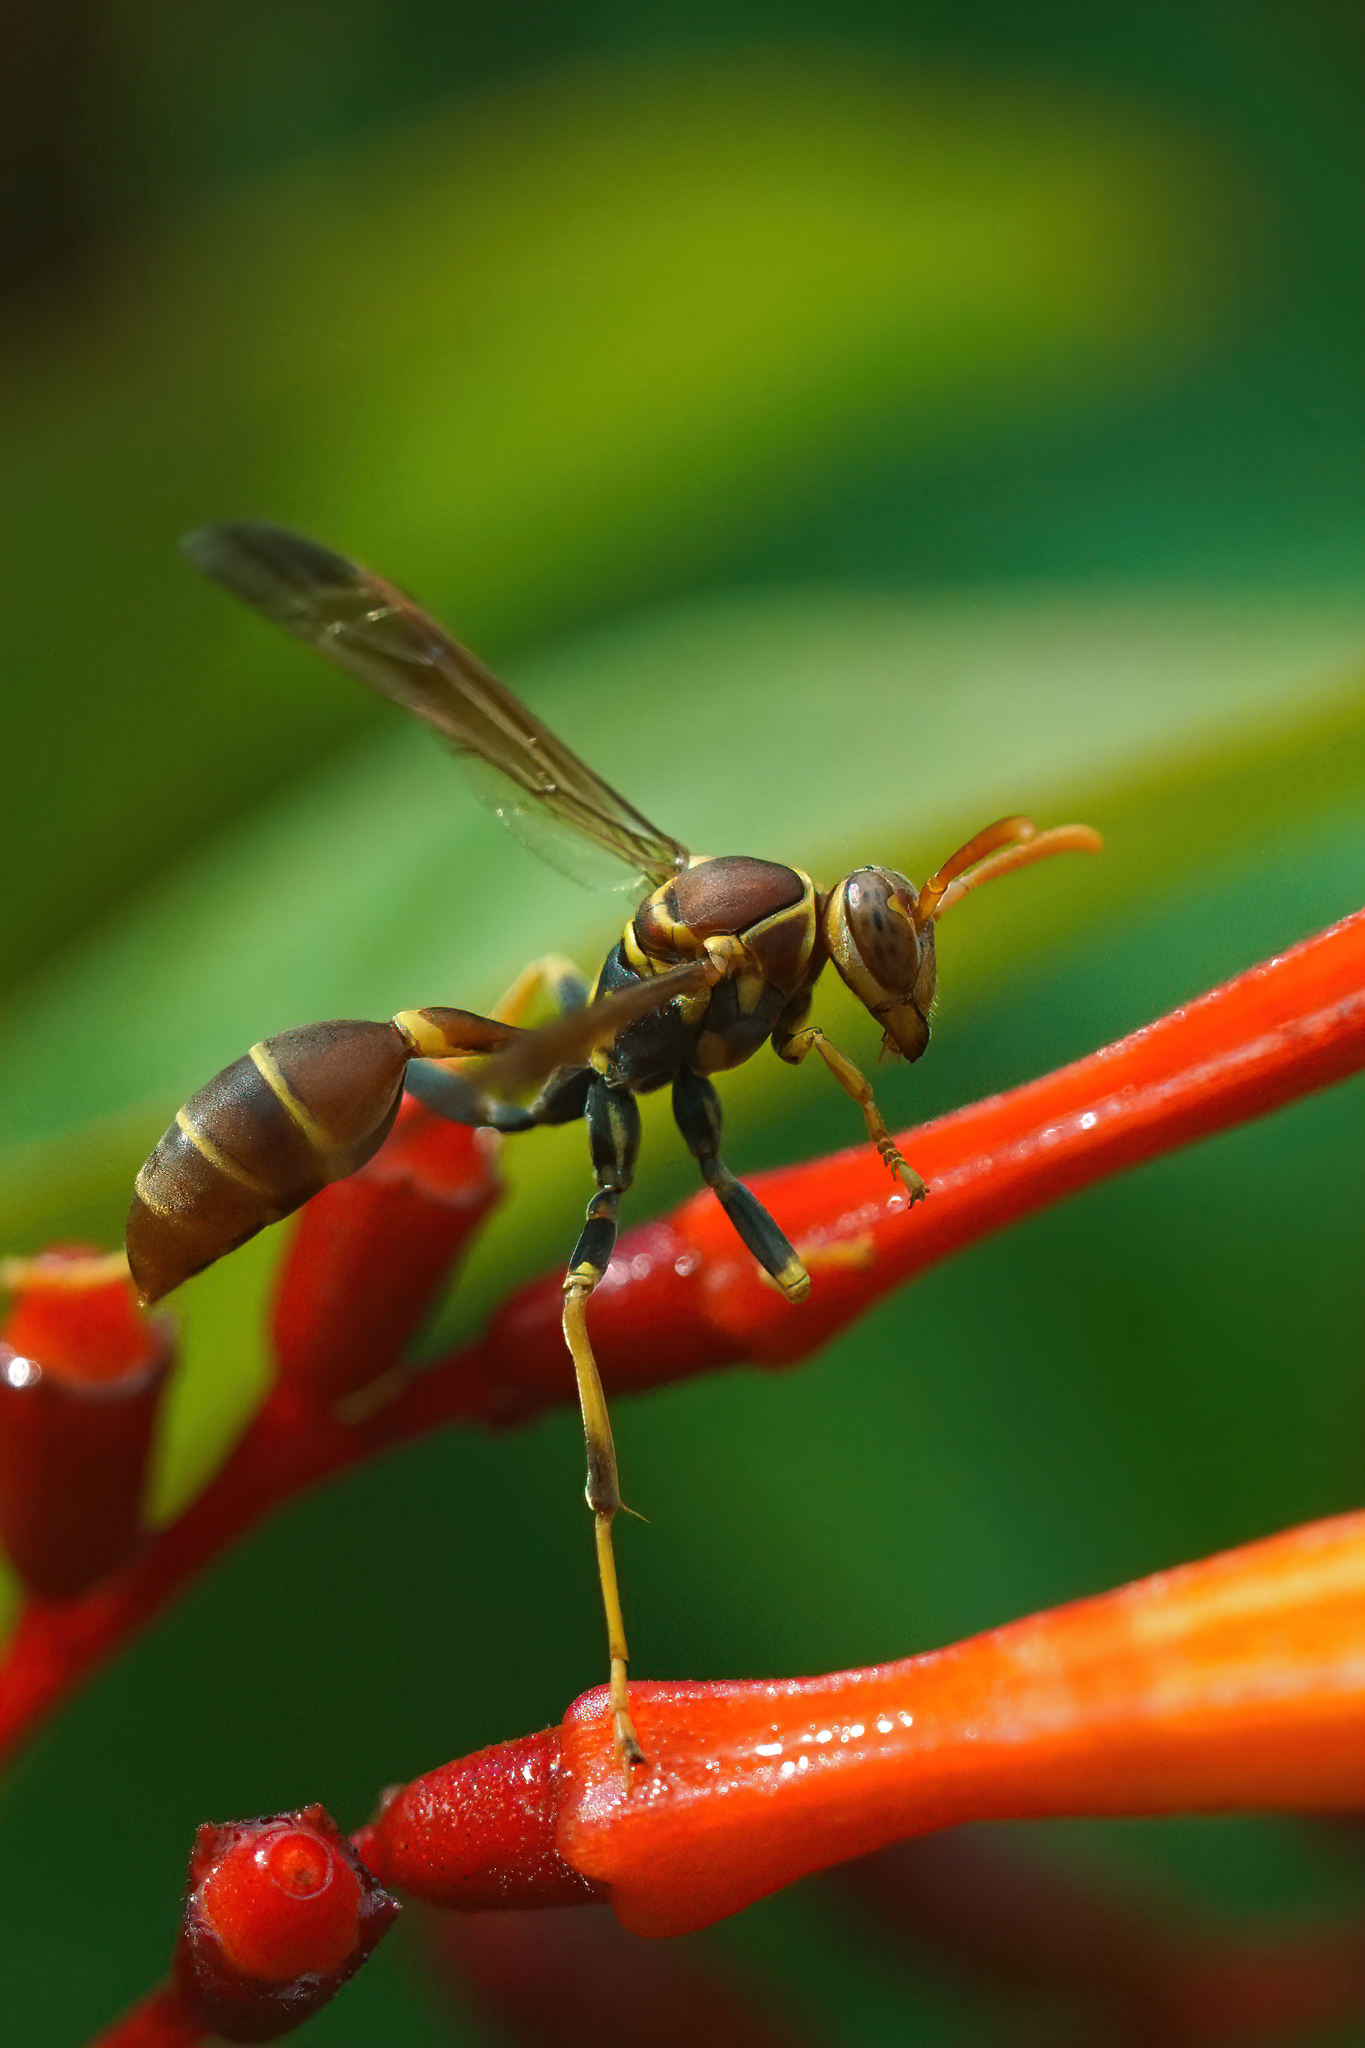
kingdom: Animalia
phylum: Arthropoda
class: Insecta
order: Hymenoptera
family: Vespidae
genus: Mischocyttarus
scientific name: Mischocyttarus mexicanus
